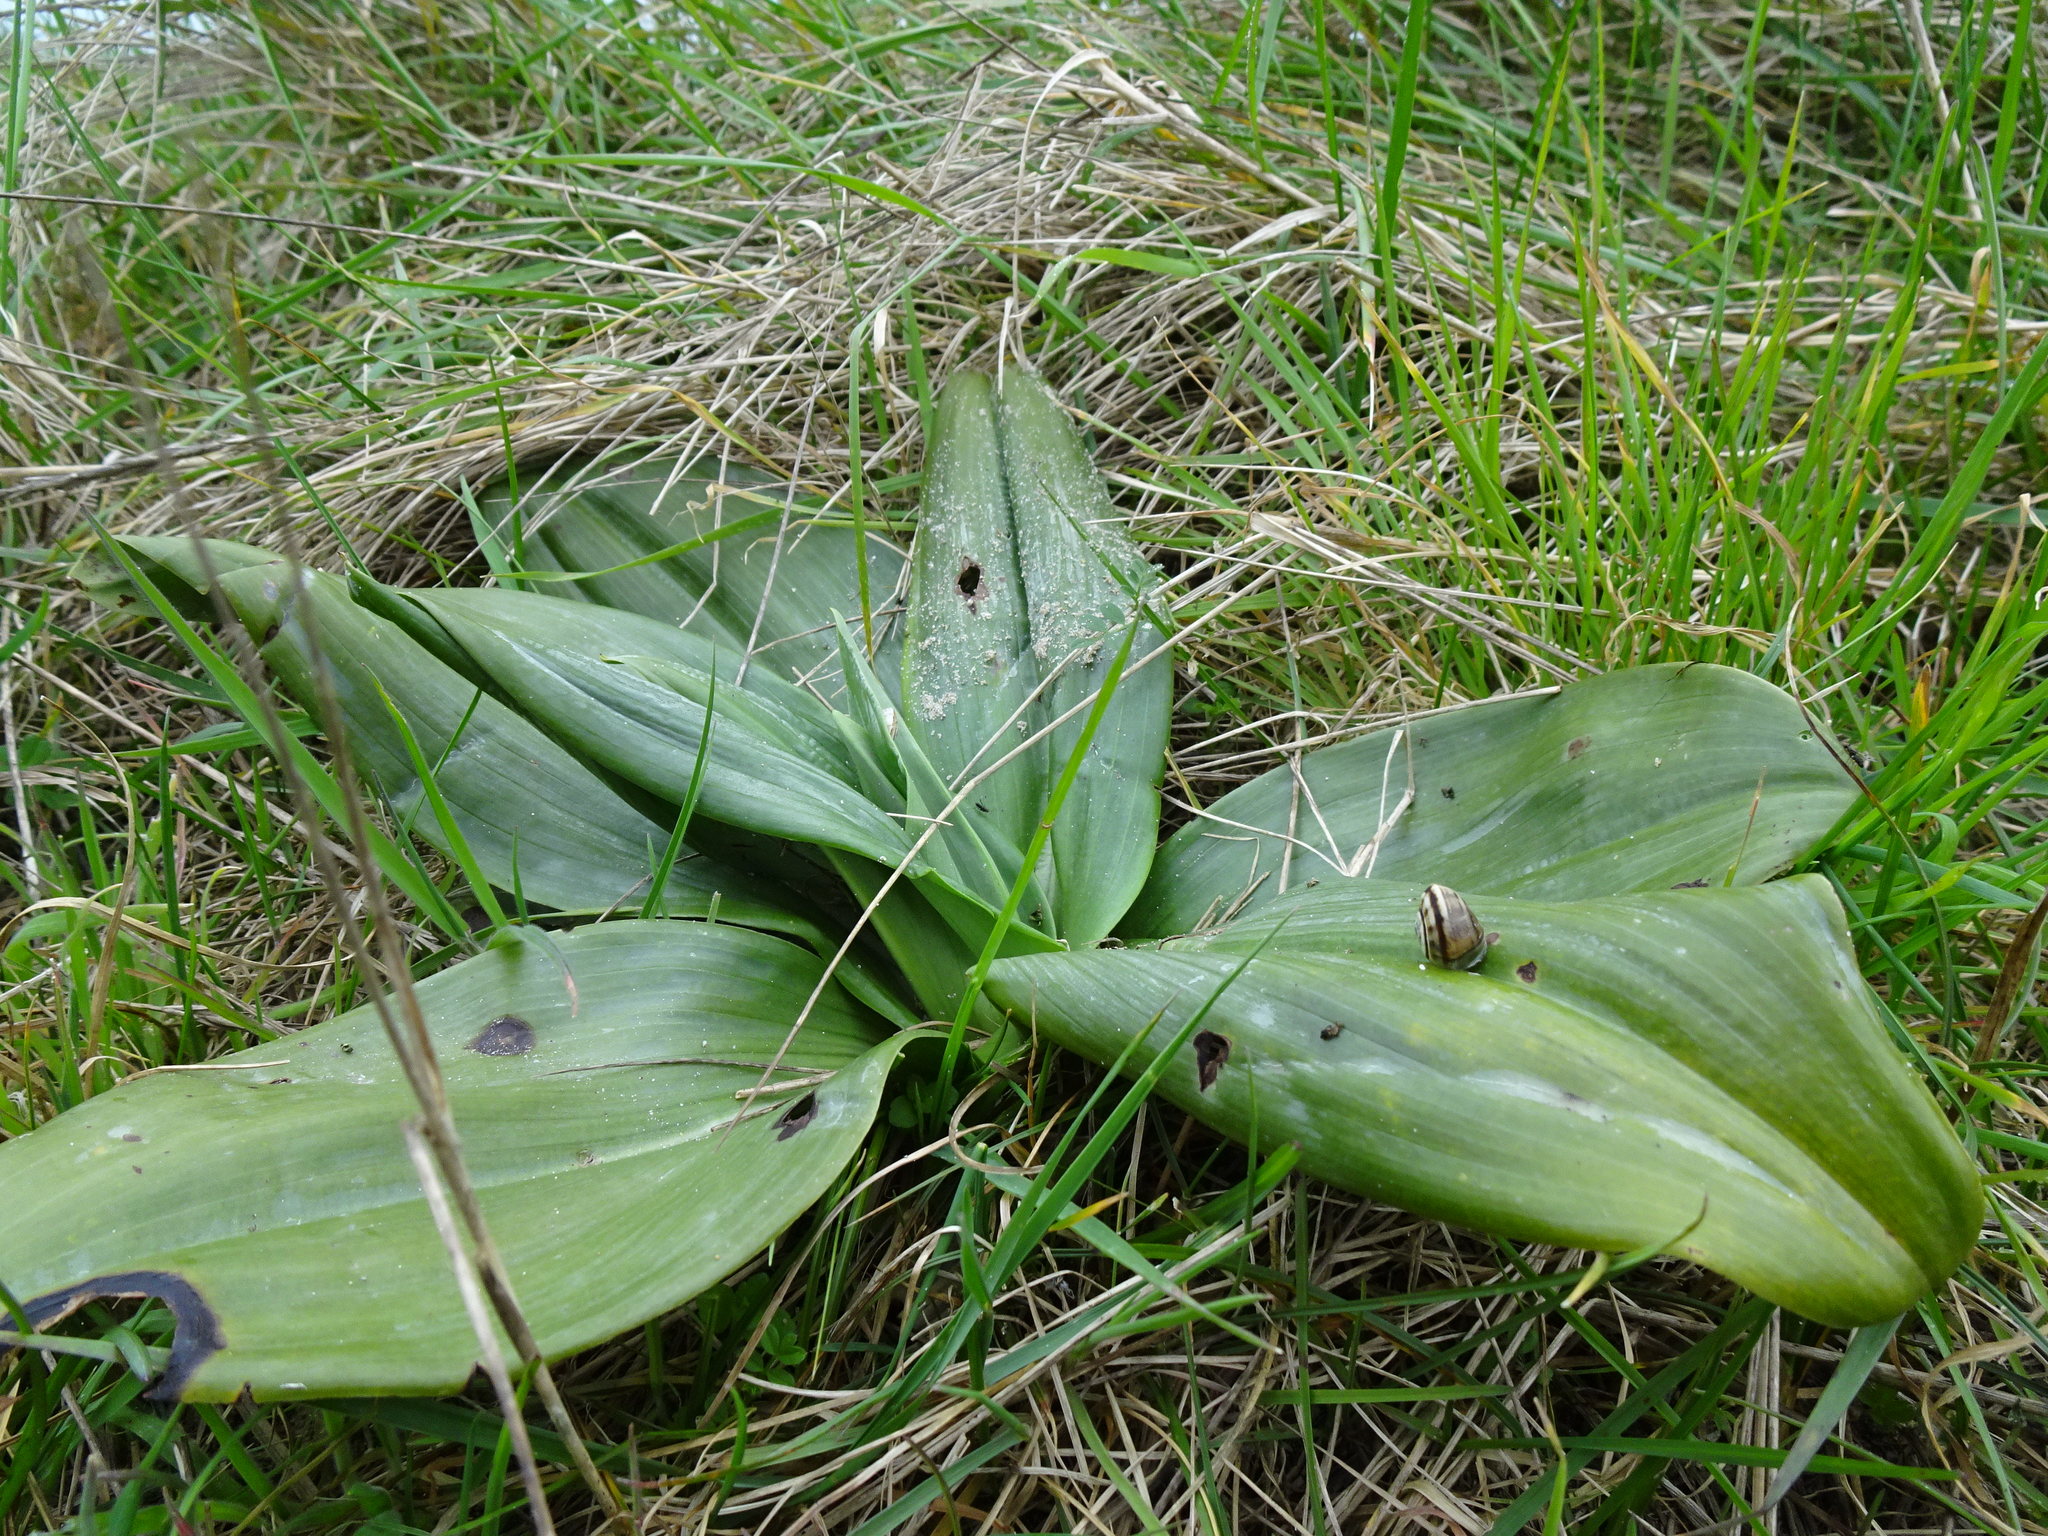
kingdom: Plantae
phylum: Tracheophyta
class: Liliopsida
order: Asparagales
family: Orchidaceae
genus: Himantoglossum
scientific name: Himantoglossum hircinum
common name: Lizard orchid
